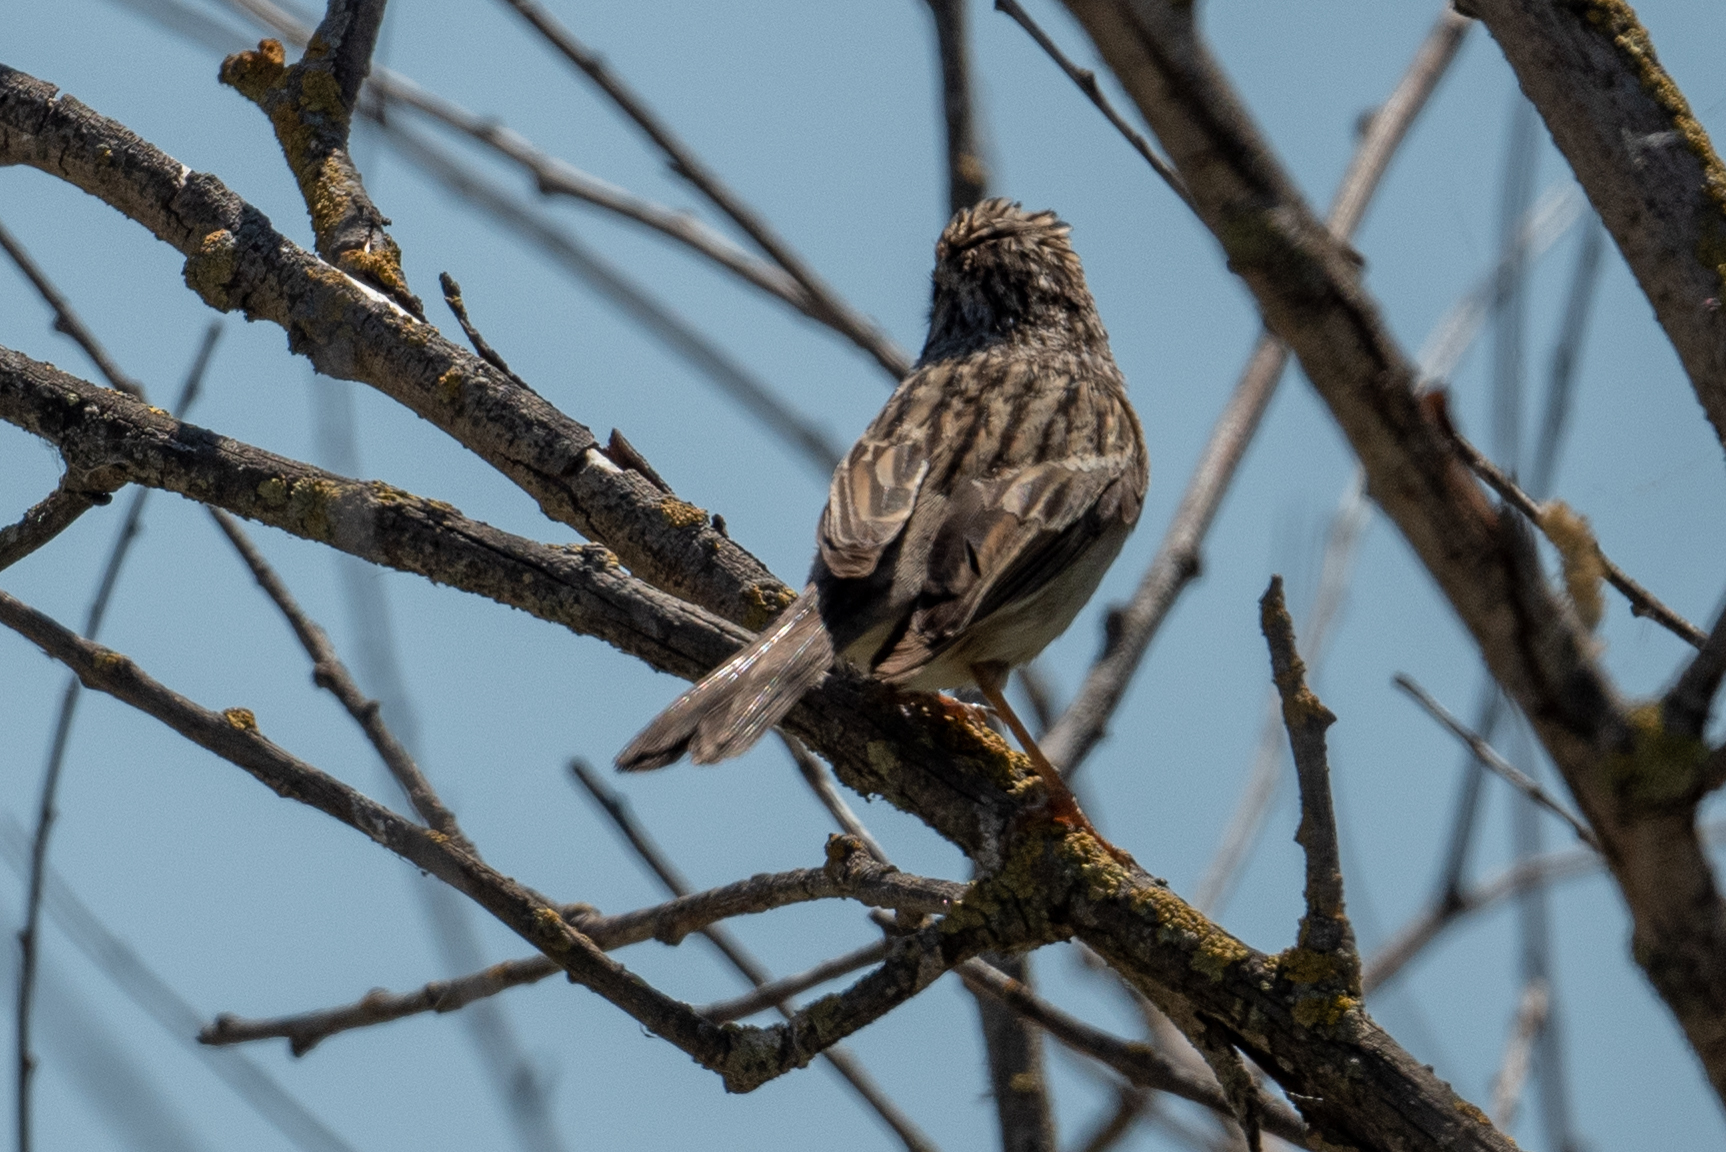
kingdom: Animalia
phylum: Chordata
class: Aves
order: Passeriformes
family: Passerellidae
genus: Spizella
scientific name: Spizella breweri
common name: Brewer's sparrow
